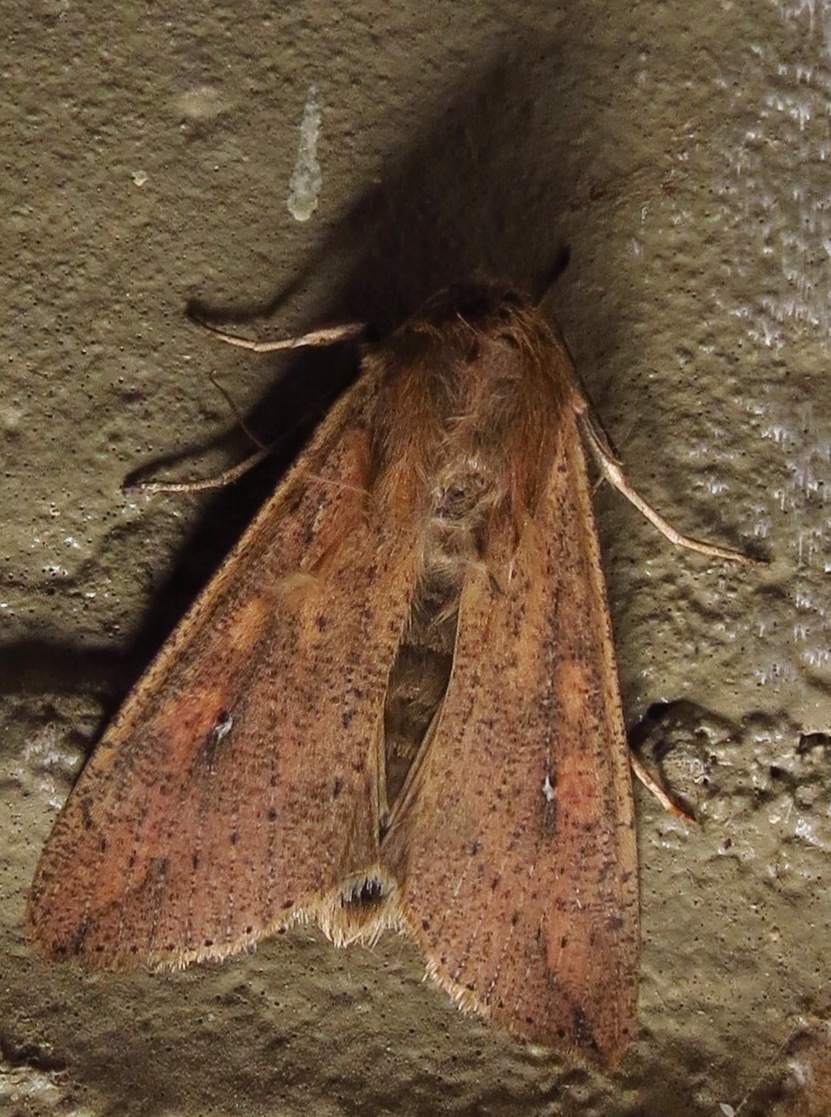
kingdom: Animalia
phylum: Arthropoda
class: Insecta
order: Lepidoptera
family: Noctuidae
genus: Mythimna
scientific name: Mythimna unipuncta
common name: White-speck
